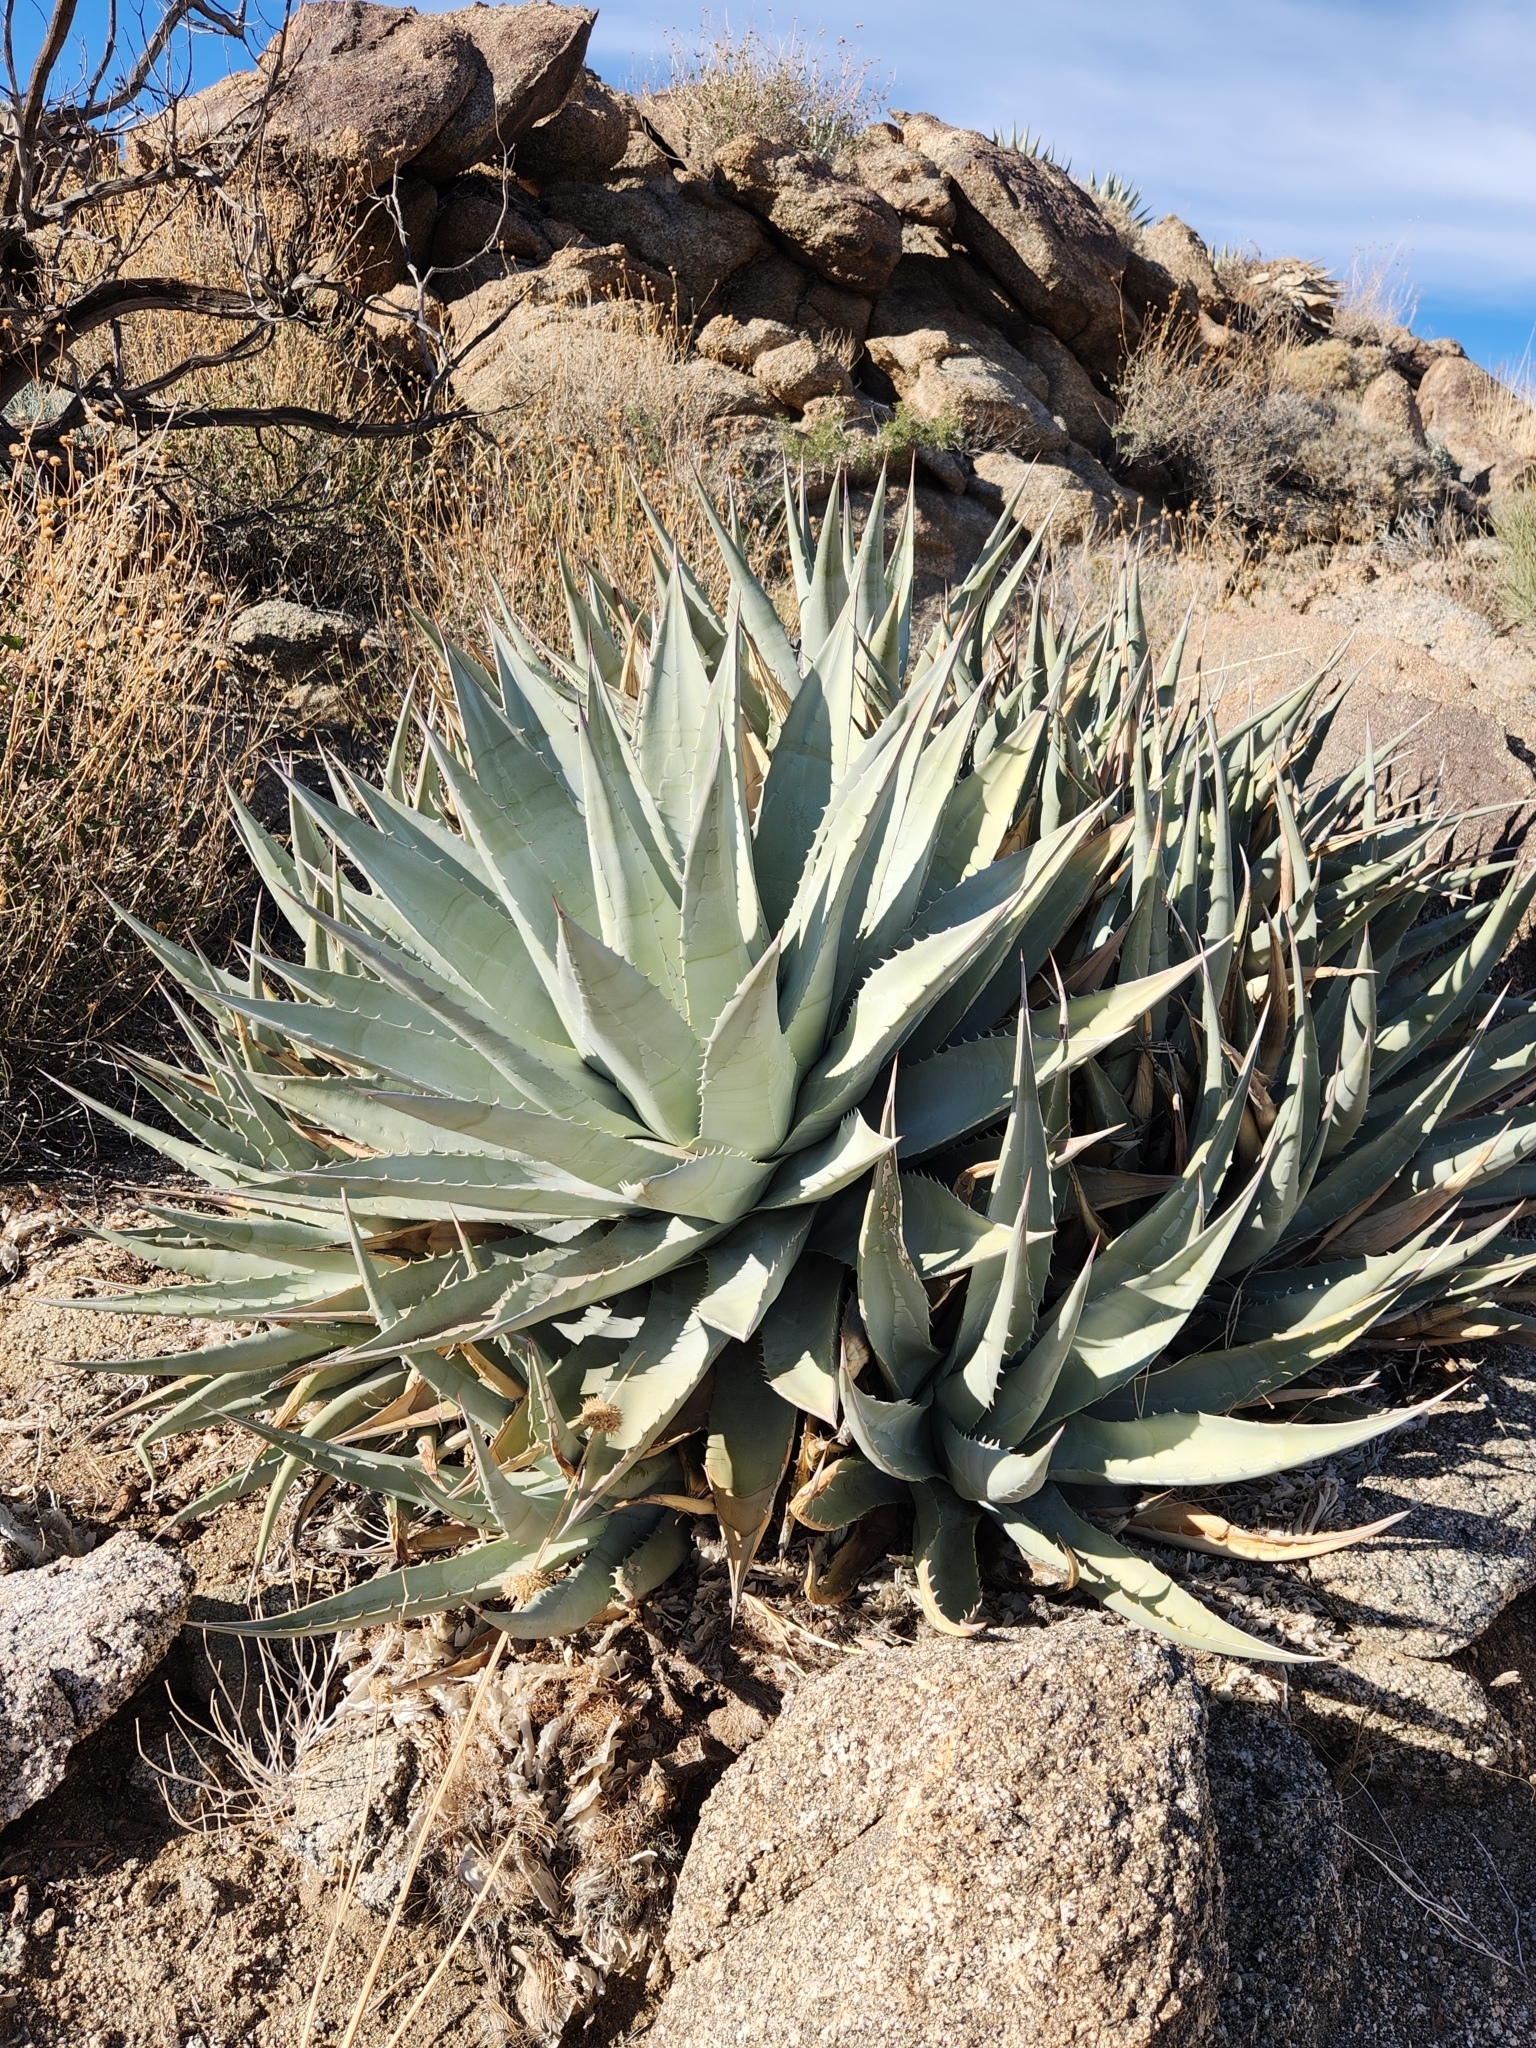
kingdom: Plantae
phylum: Tracheophyta
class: Liliopsida
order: Asparagales
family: Asparagaceae
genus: Agave
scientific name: Agave deserti
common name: Desert agave
